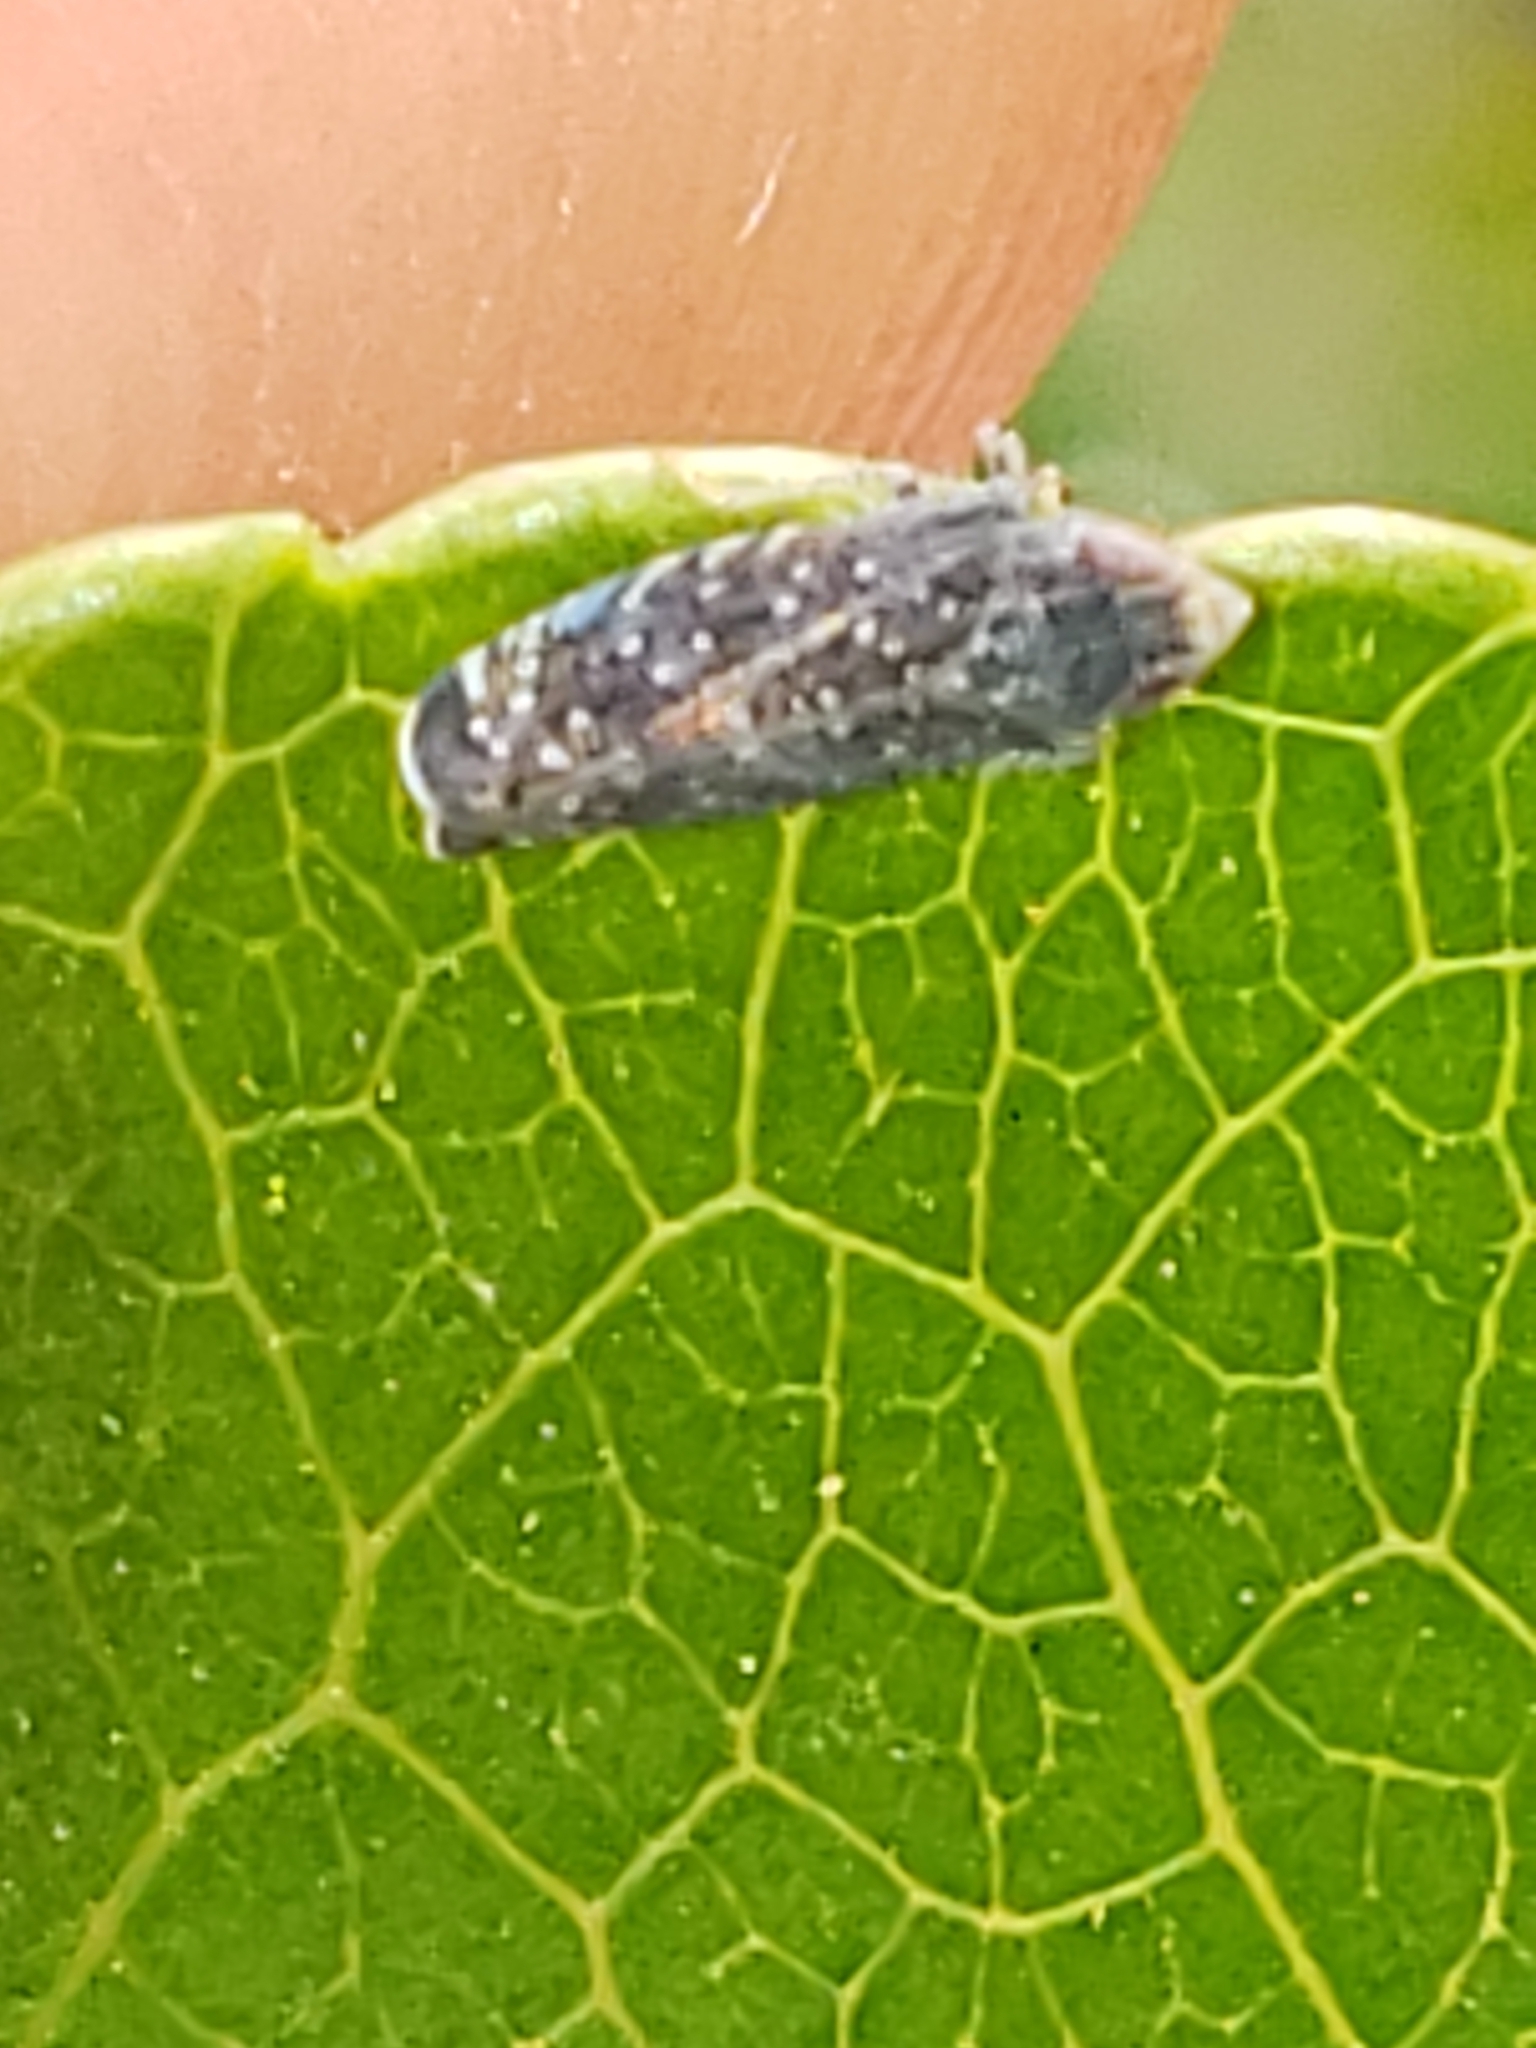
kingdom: Animalia
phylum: Arthropoda
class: Insecta
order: Hemiptera
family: Cicadellidae
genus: Scaphytopius
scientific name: Scaphytopius frontalis
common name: The yellow-faced leafhopper
